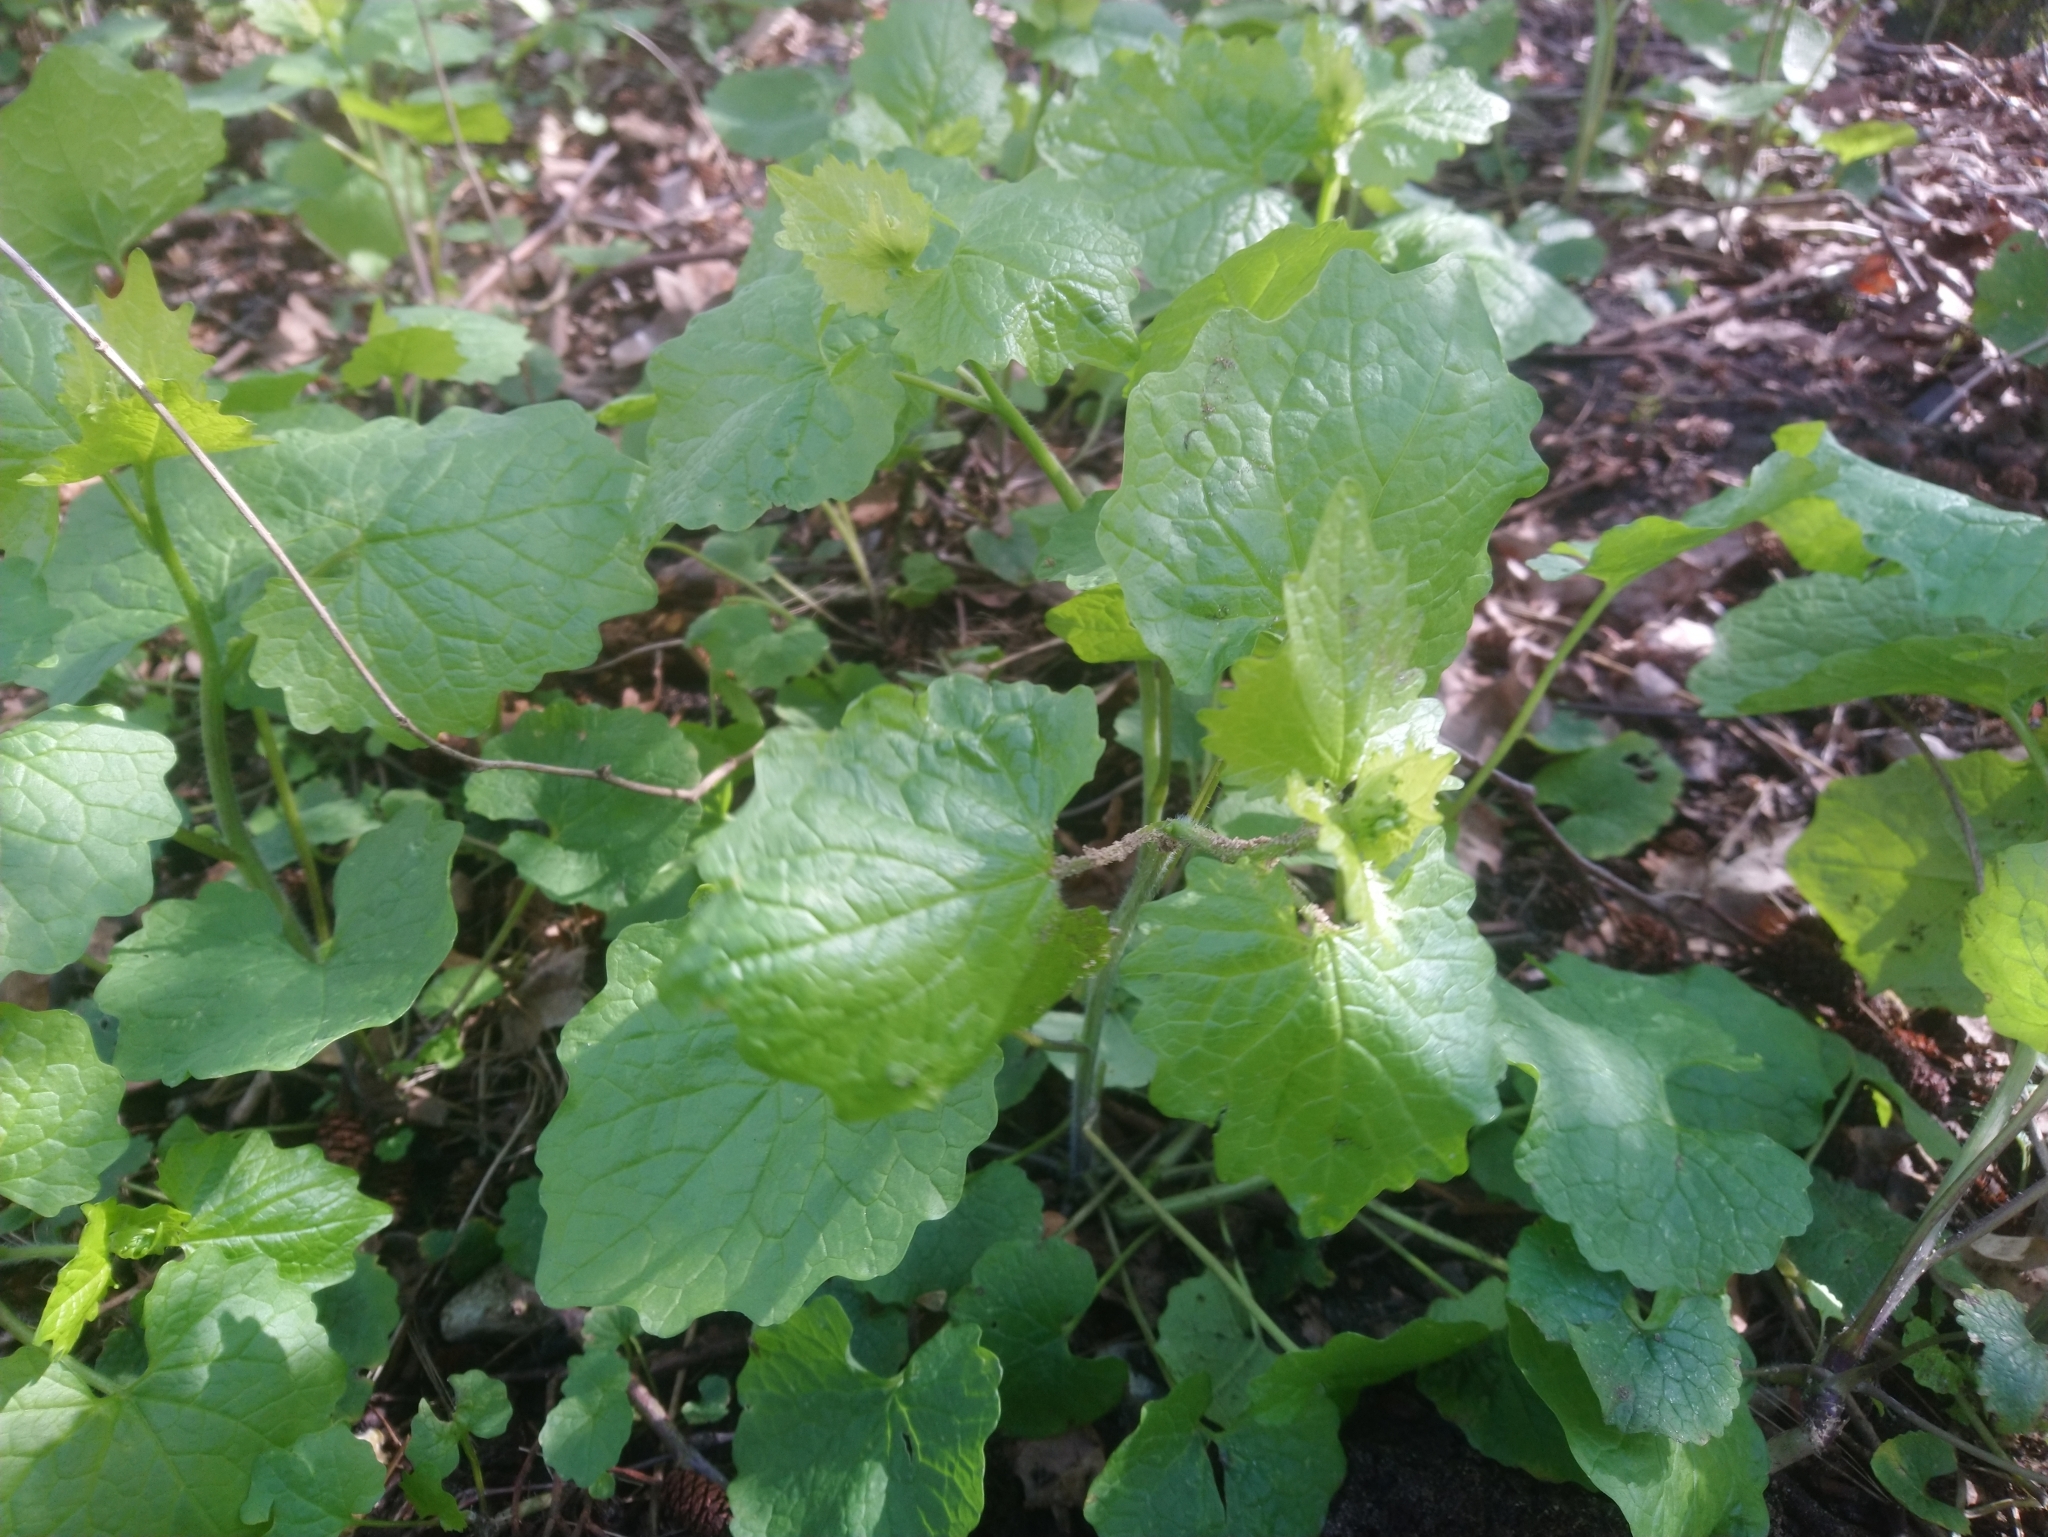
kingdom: Plantae
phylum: Tracheophyta
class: Magnoliopsida
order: Brassicales
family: Brassicaceae
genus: Alliaria
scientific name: Alliaria petiolata
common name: Garlic mustard
